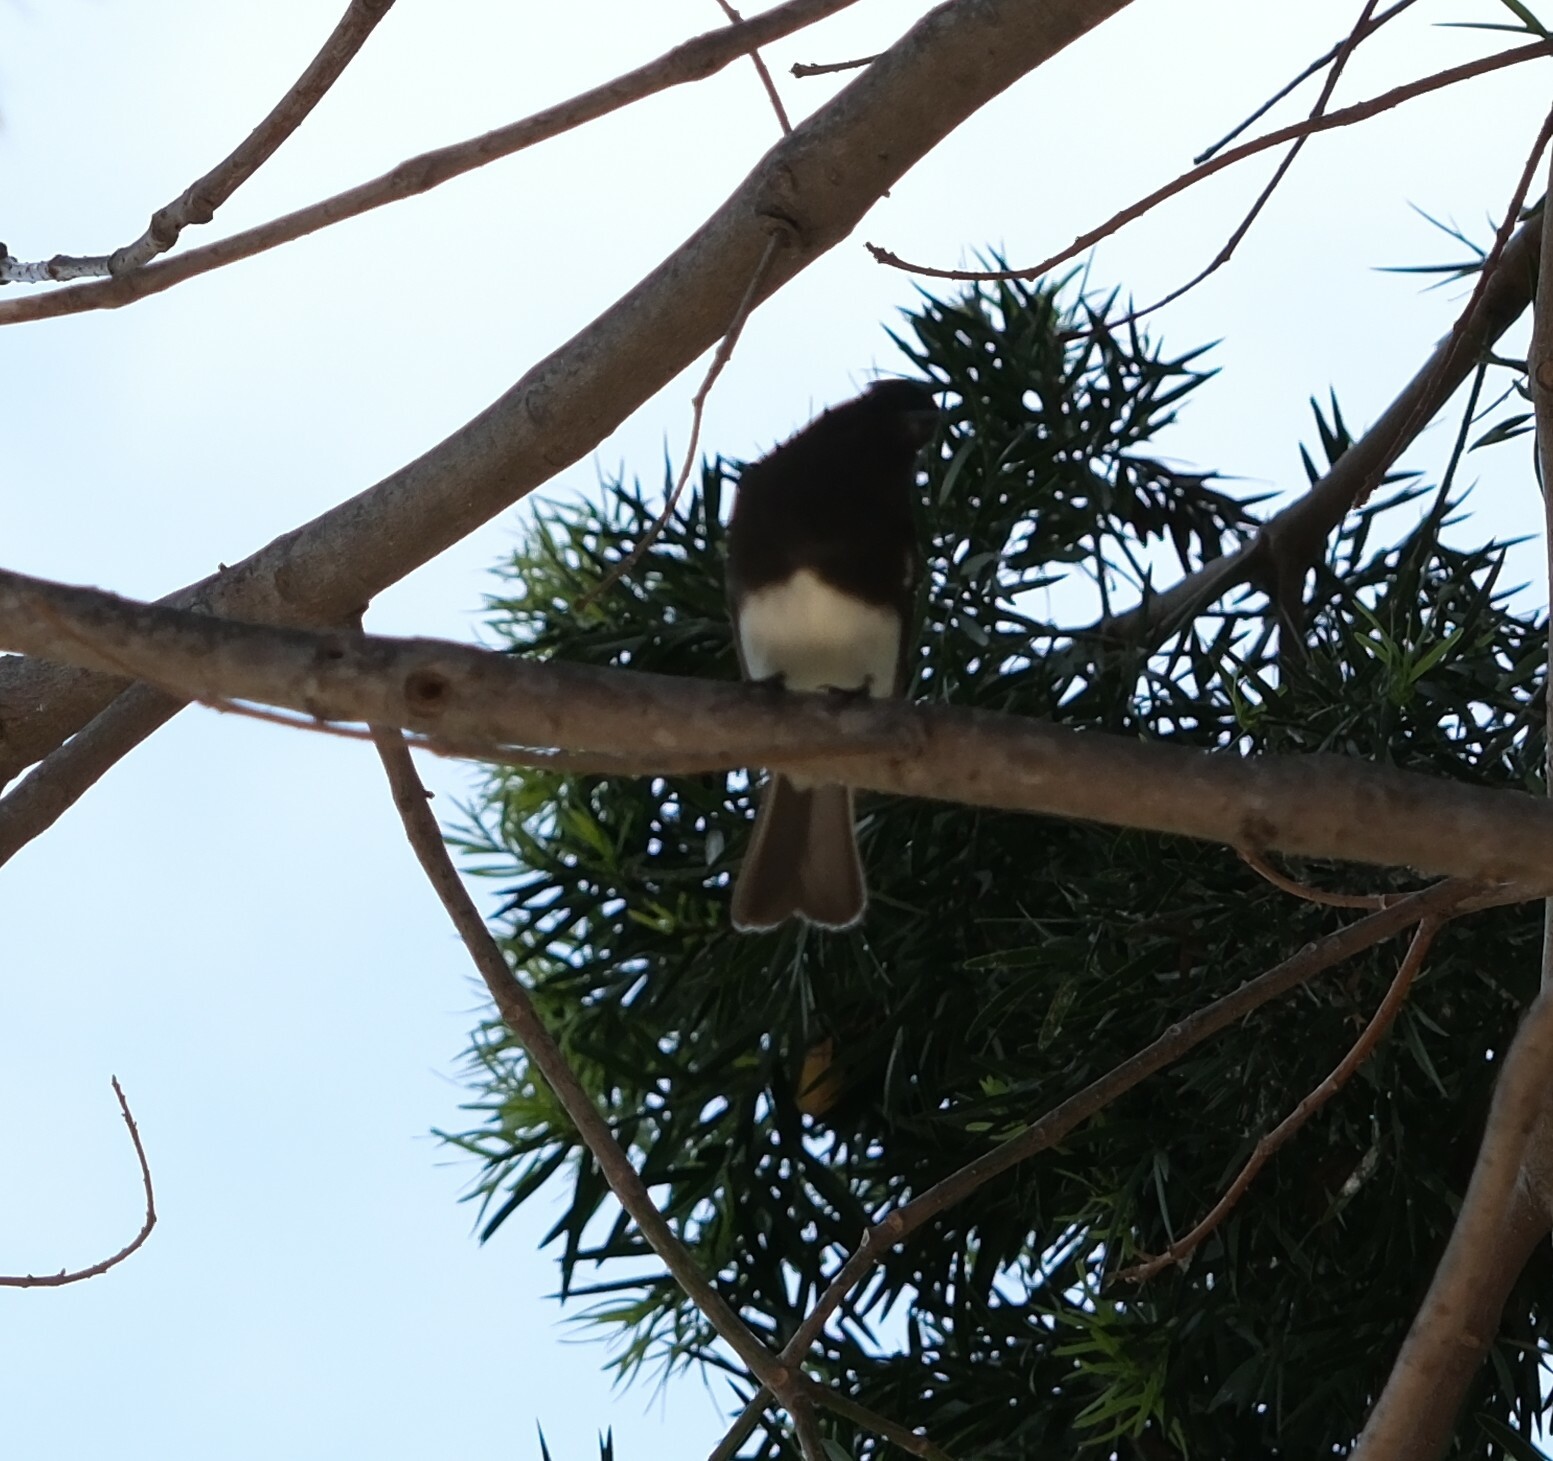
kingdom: Animalia
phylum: Chordata
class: Aves
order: Passeriformes
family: Tyrannidae
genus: Sayornis
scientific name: Sayornis nigricans
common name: Black phoebe
